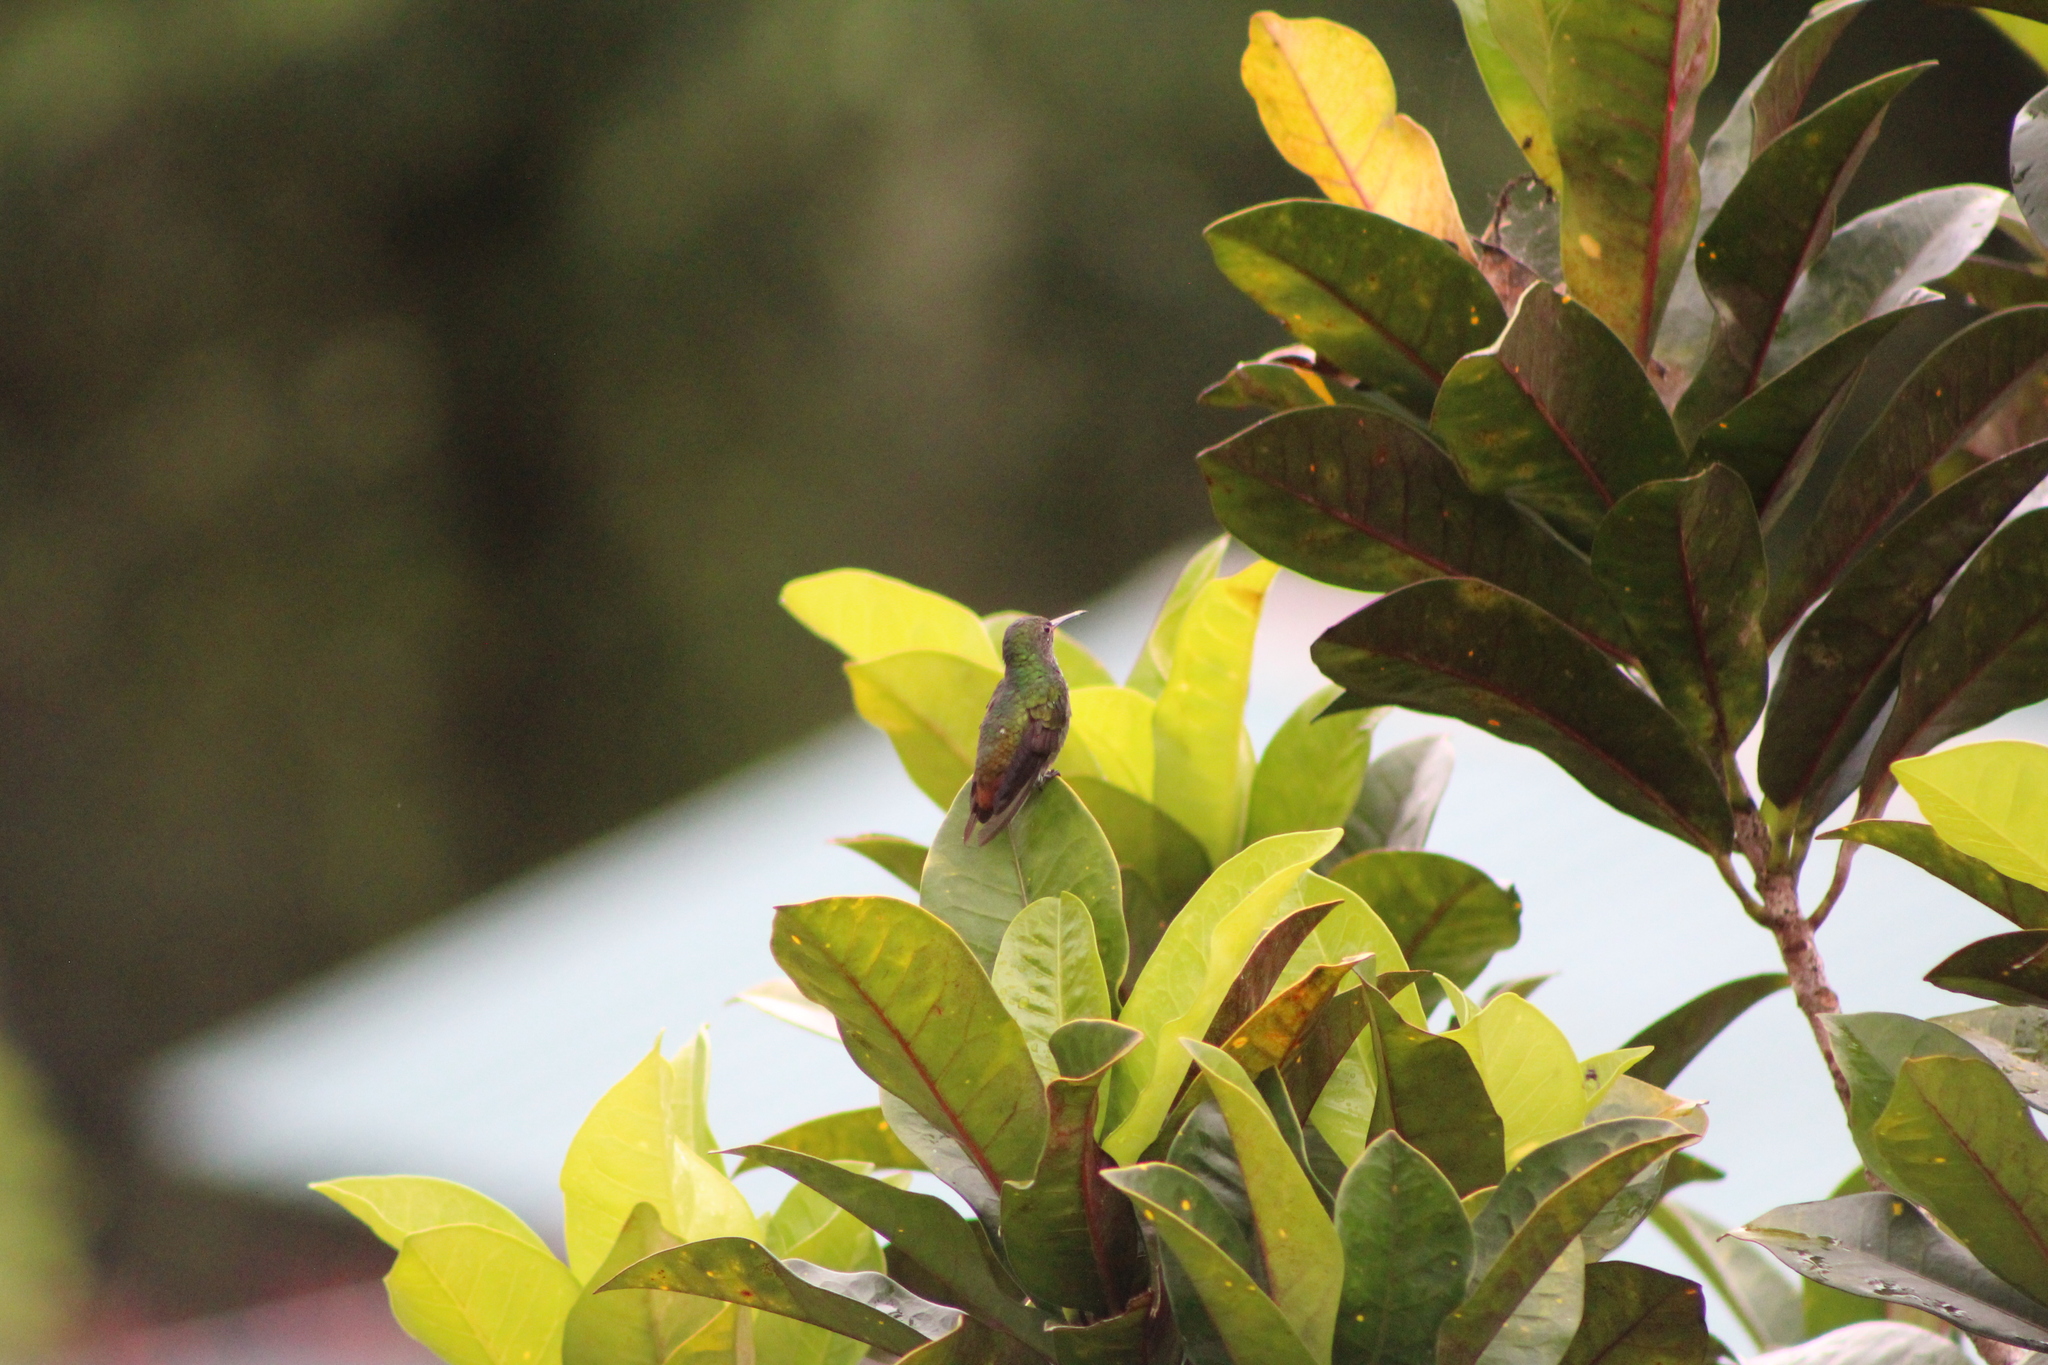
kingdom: Animalia
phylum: Chordata
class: Aves
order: Apodiformes
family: Trochilidae
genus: Amazilia
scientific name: Amazilia tzacatl
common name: Rufous-tailed hummingbird
